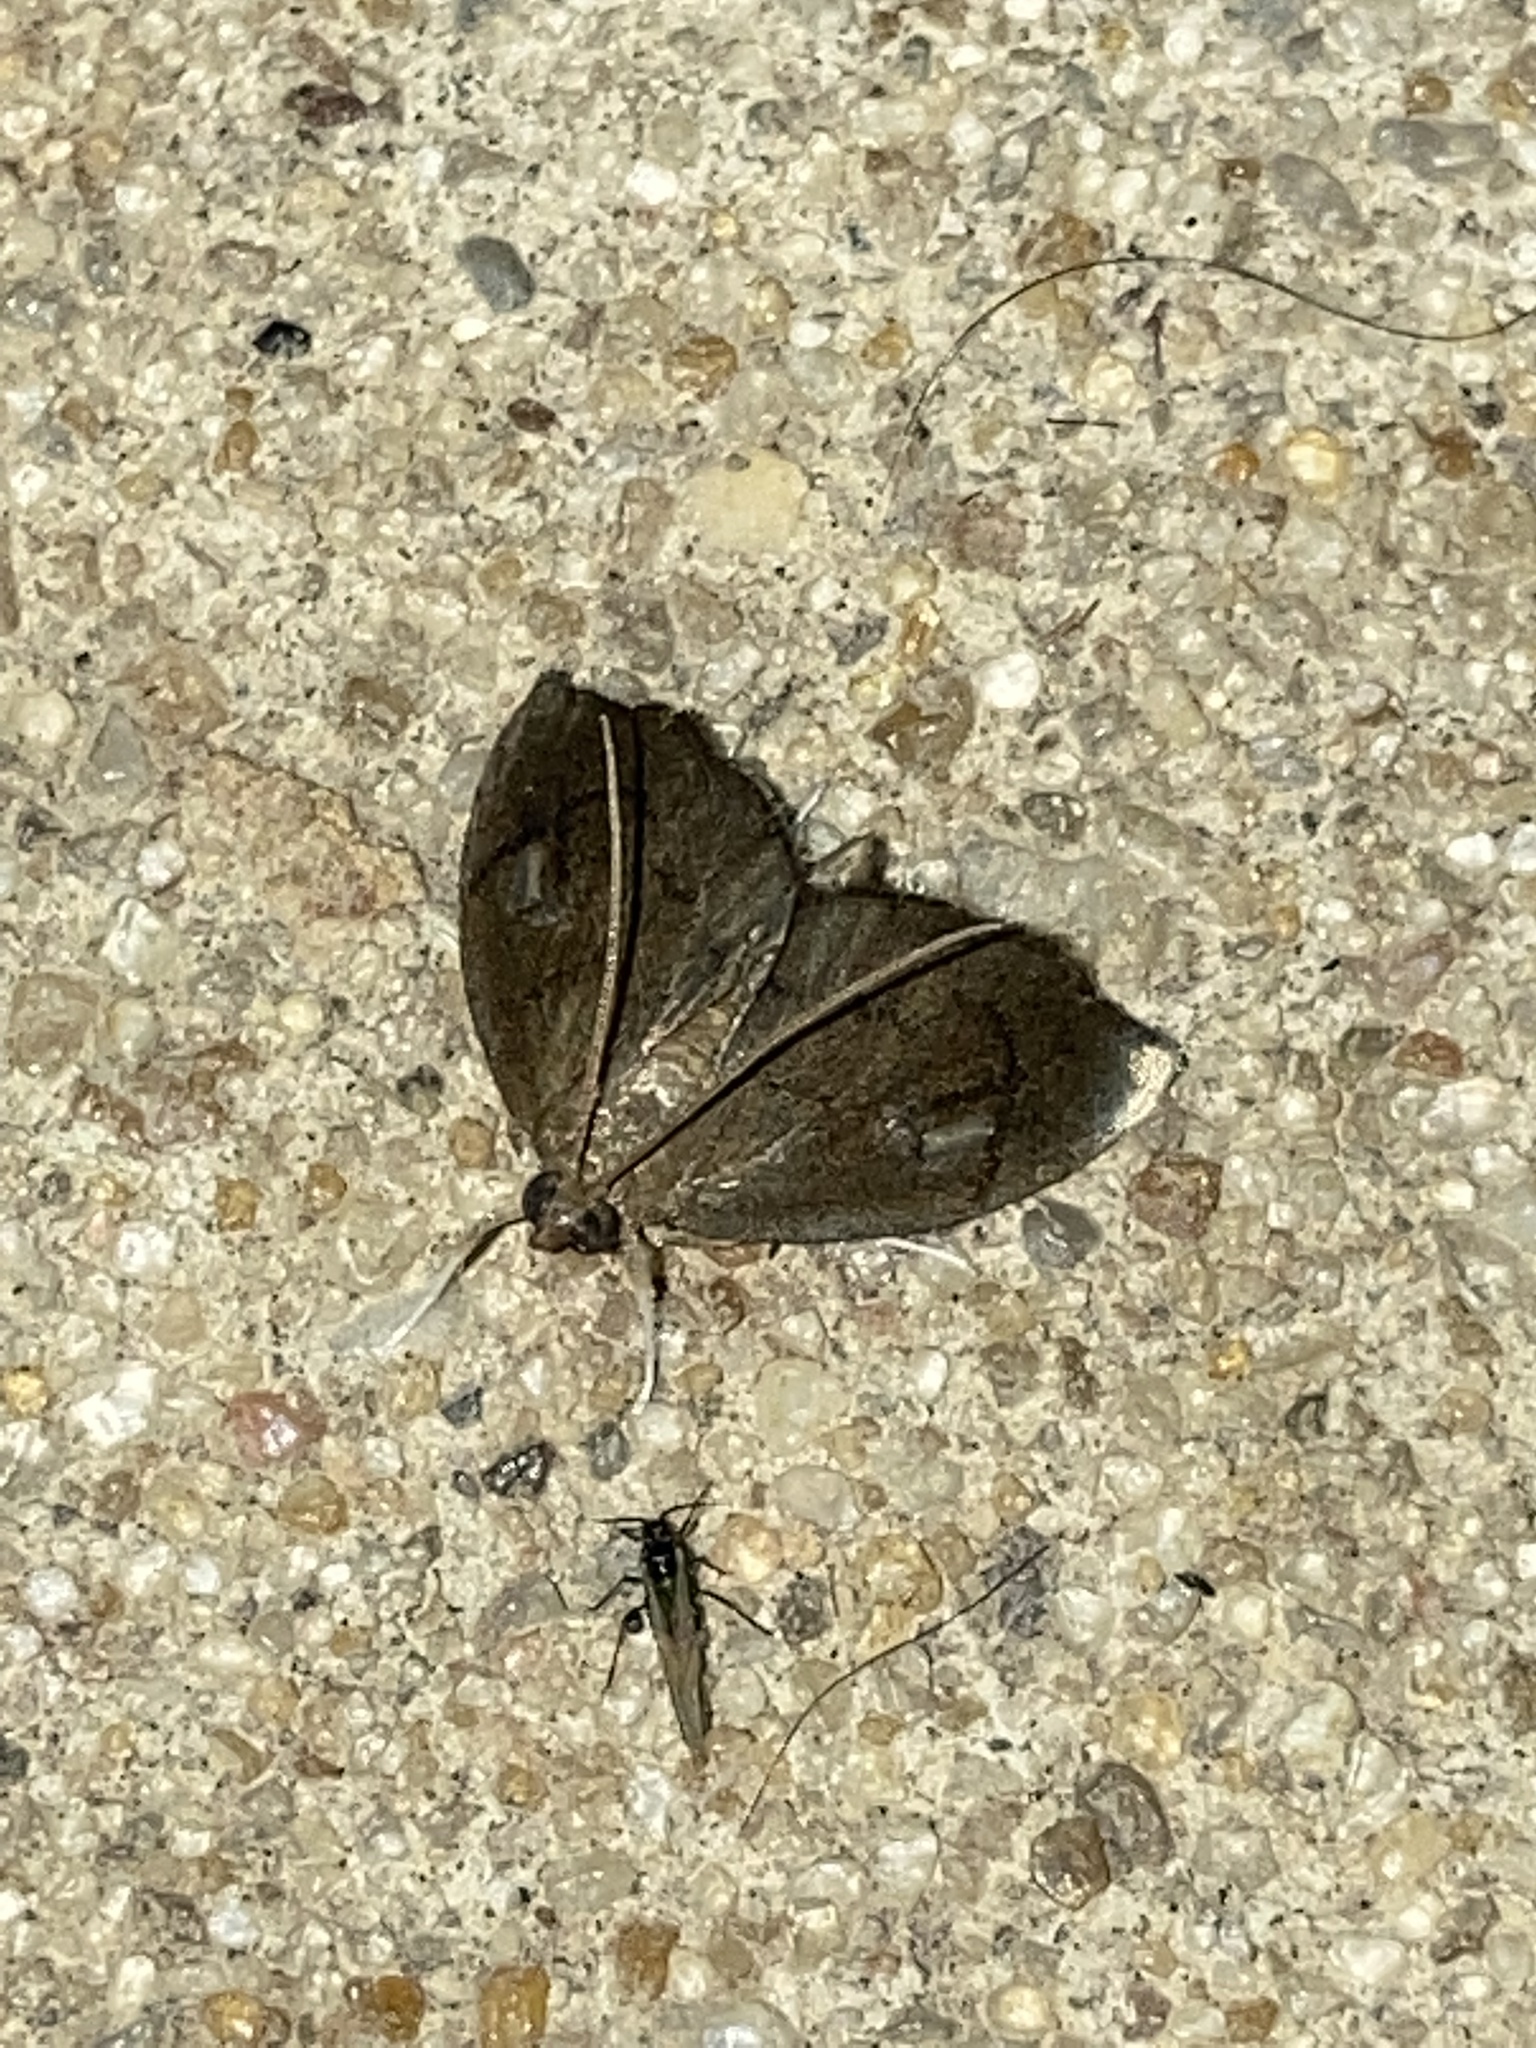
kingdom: Animalia
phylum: Arthropoda
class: Insecta
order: Lepidoptera
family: Crambidae
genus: Perispasta
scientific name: Perispasta caeculalis
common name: Titian peale's moth
